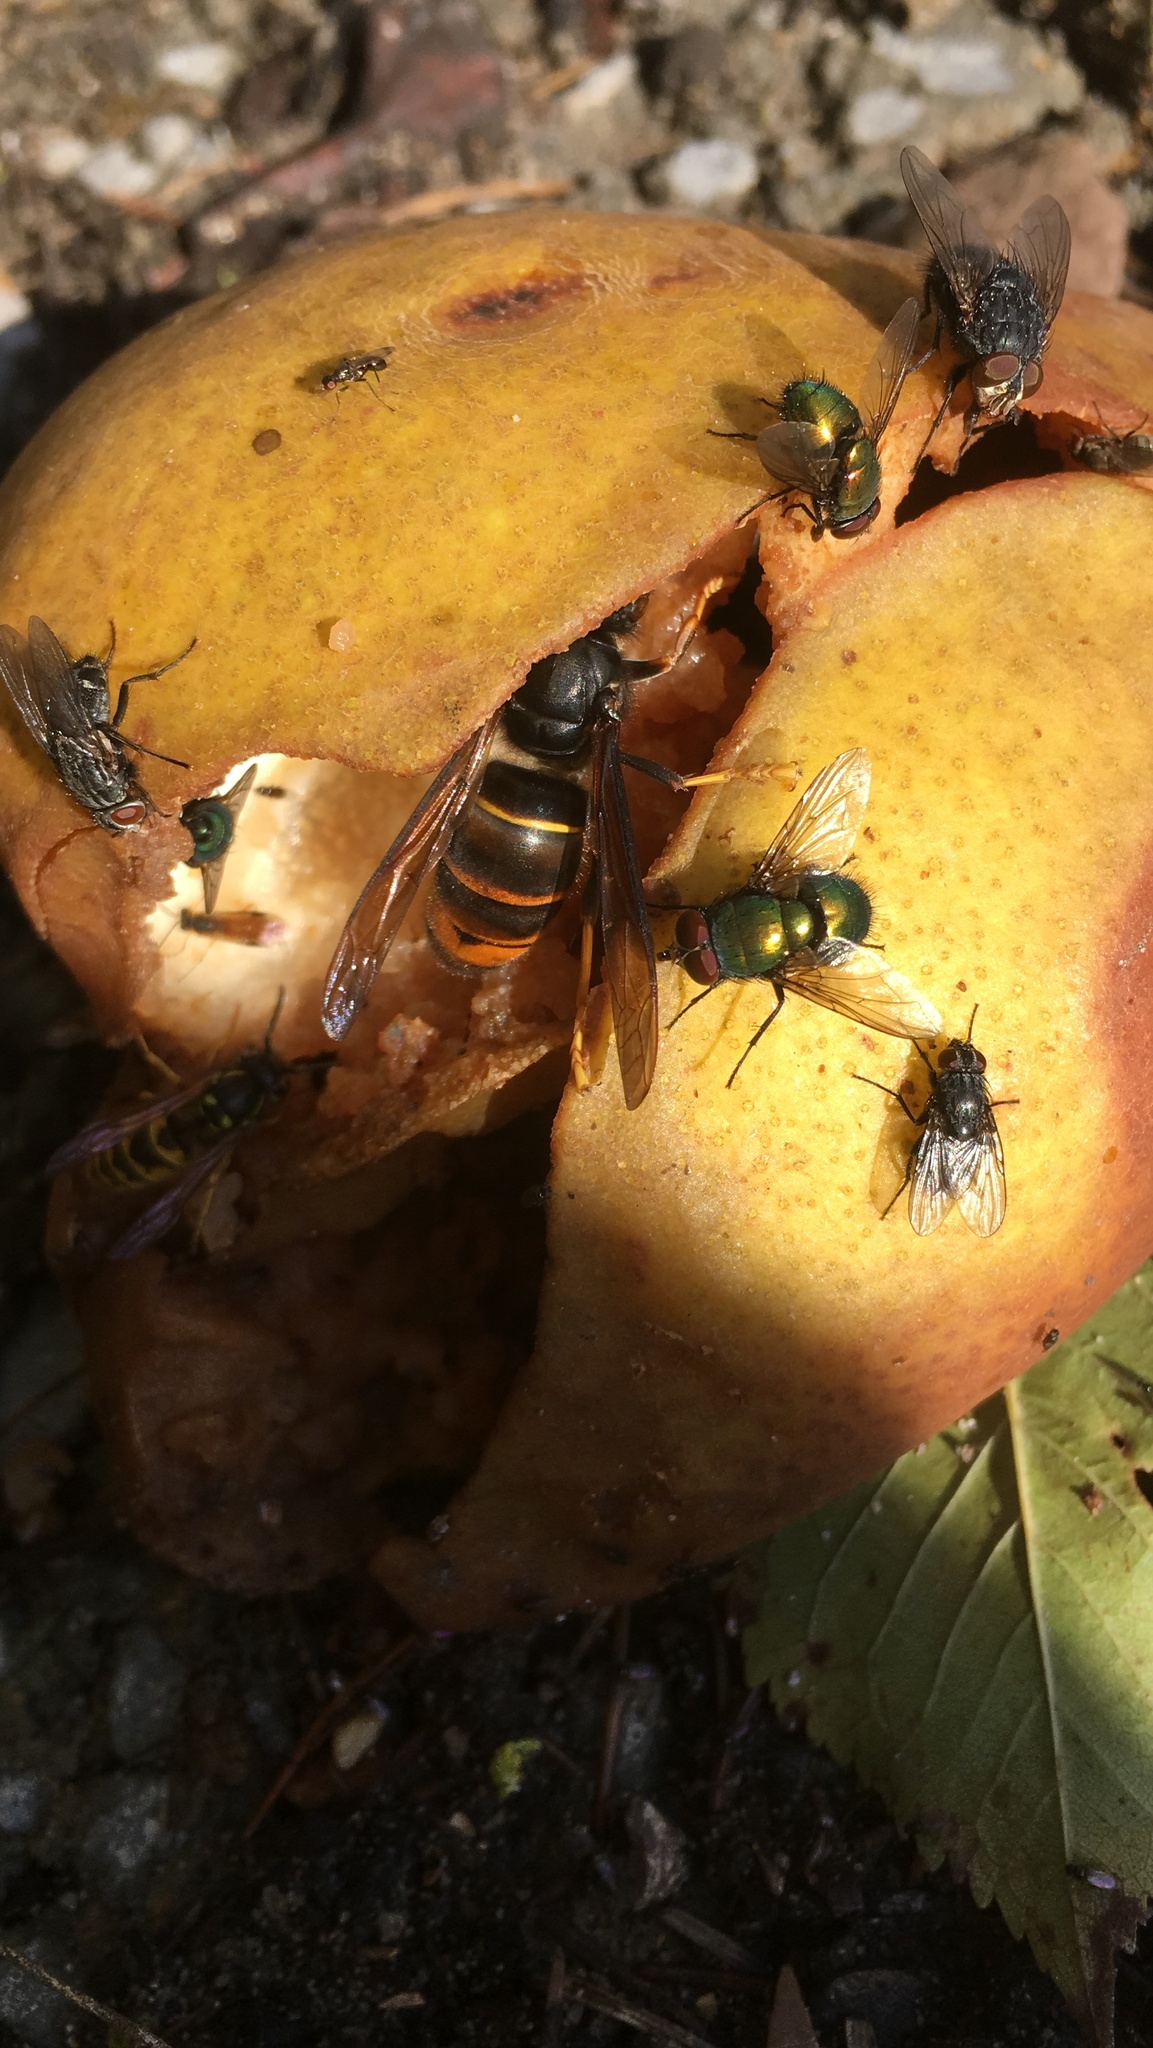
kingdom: Animalia
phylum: Arthropoda
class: Insecta
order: Hymenoptera
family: Vespidae
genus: Vespa
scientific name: Vespa velutina
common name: Asian hornet
